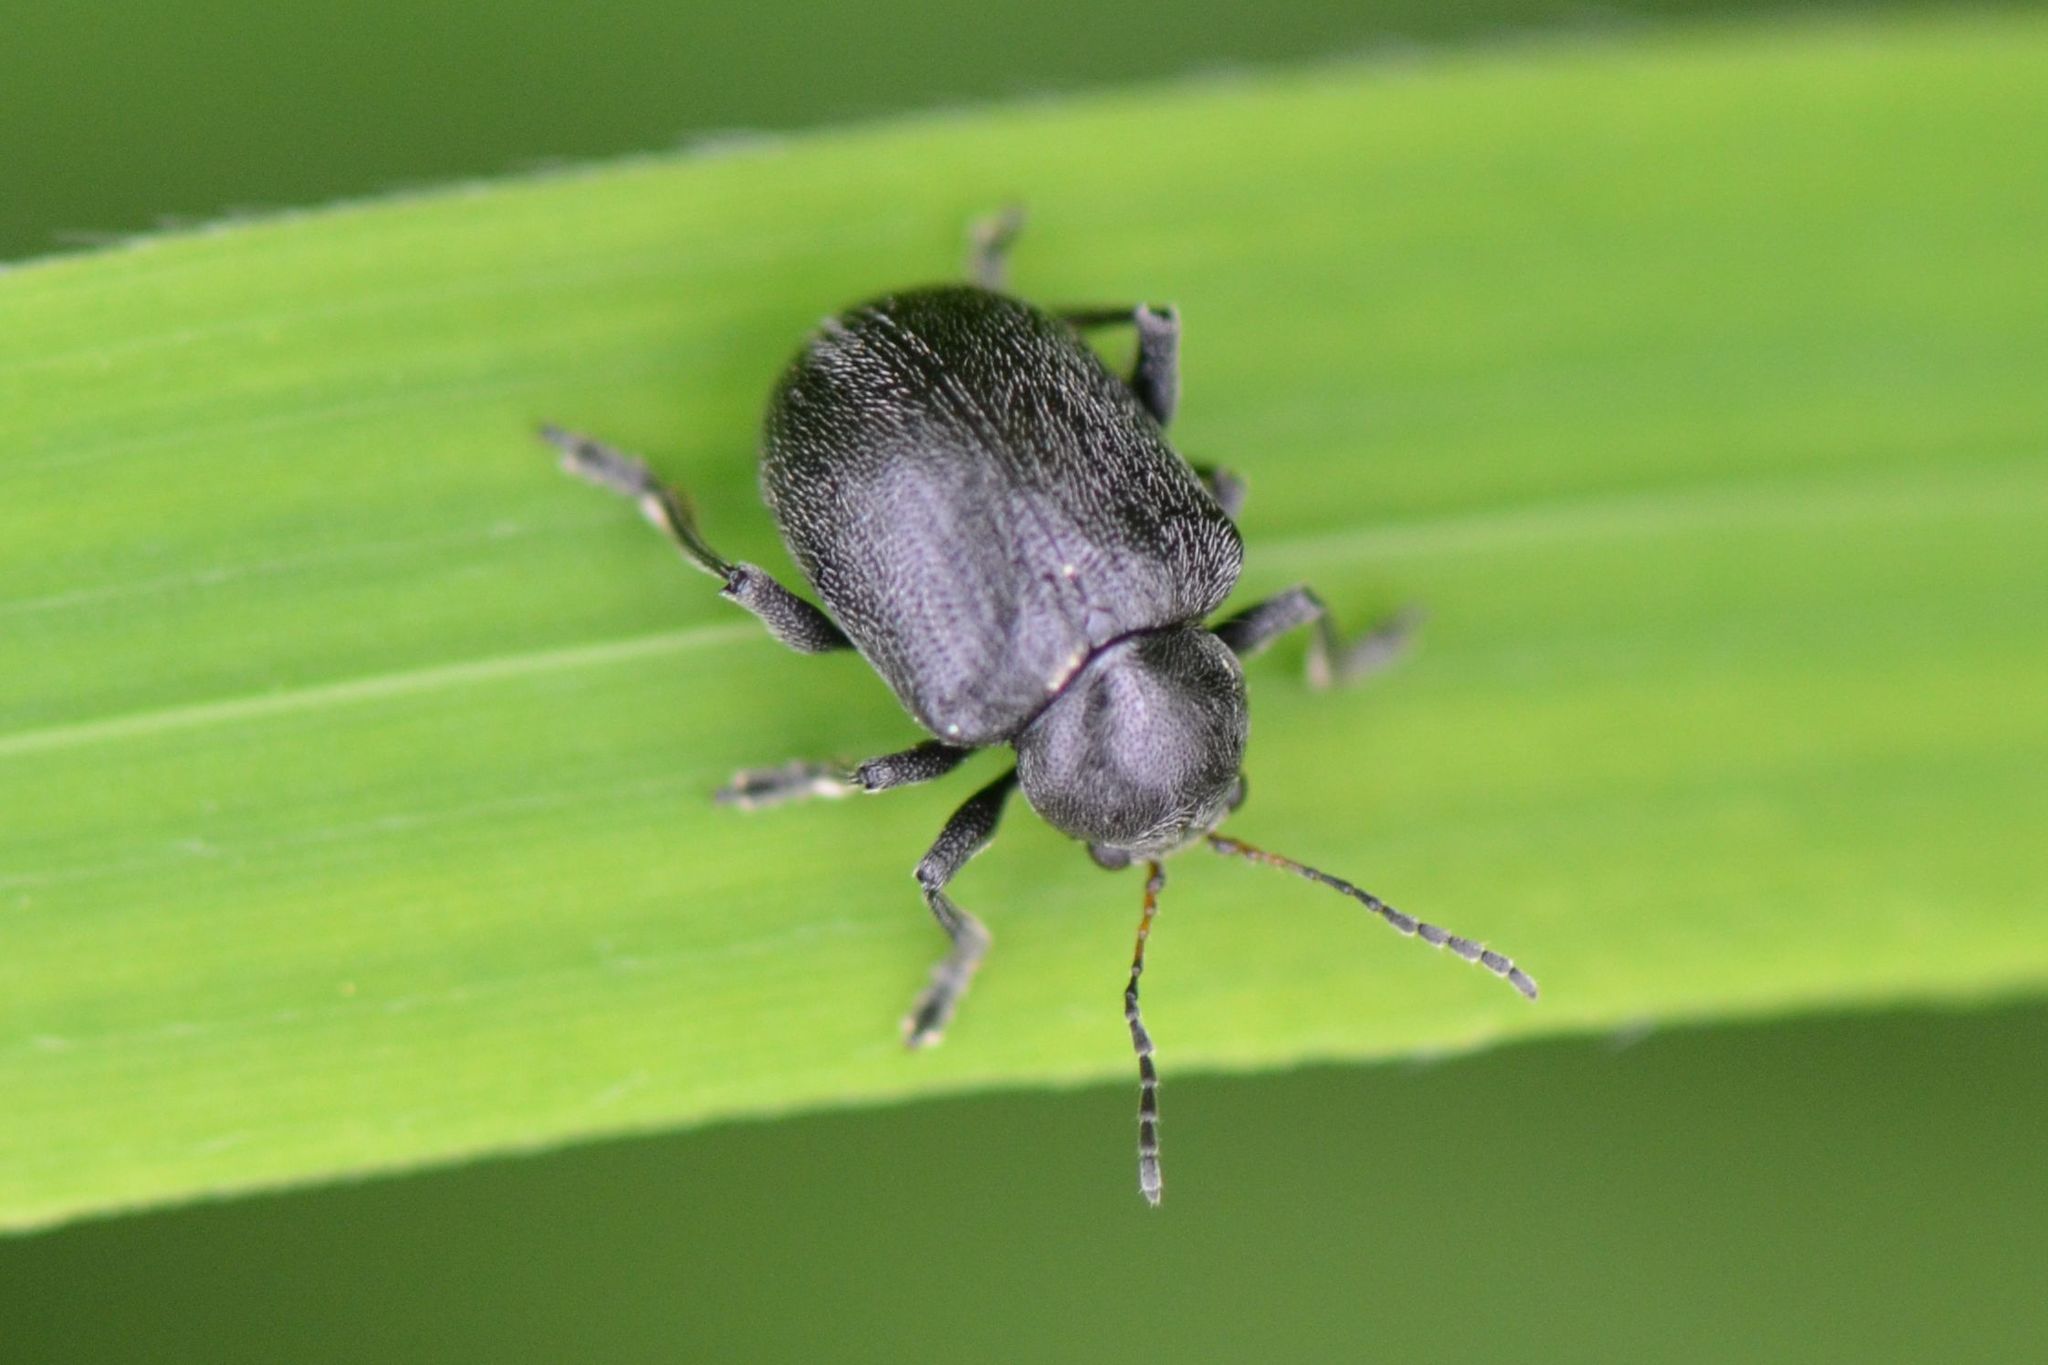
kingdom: Animalia
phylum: Arthropoda
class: Insecta
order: Coleoptera
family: Chrysomelidae
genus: Bromius
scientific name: Bromius obscurus
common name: Western grape rootworm
